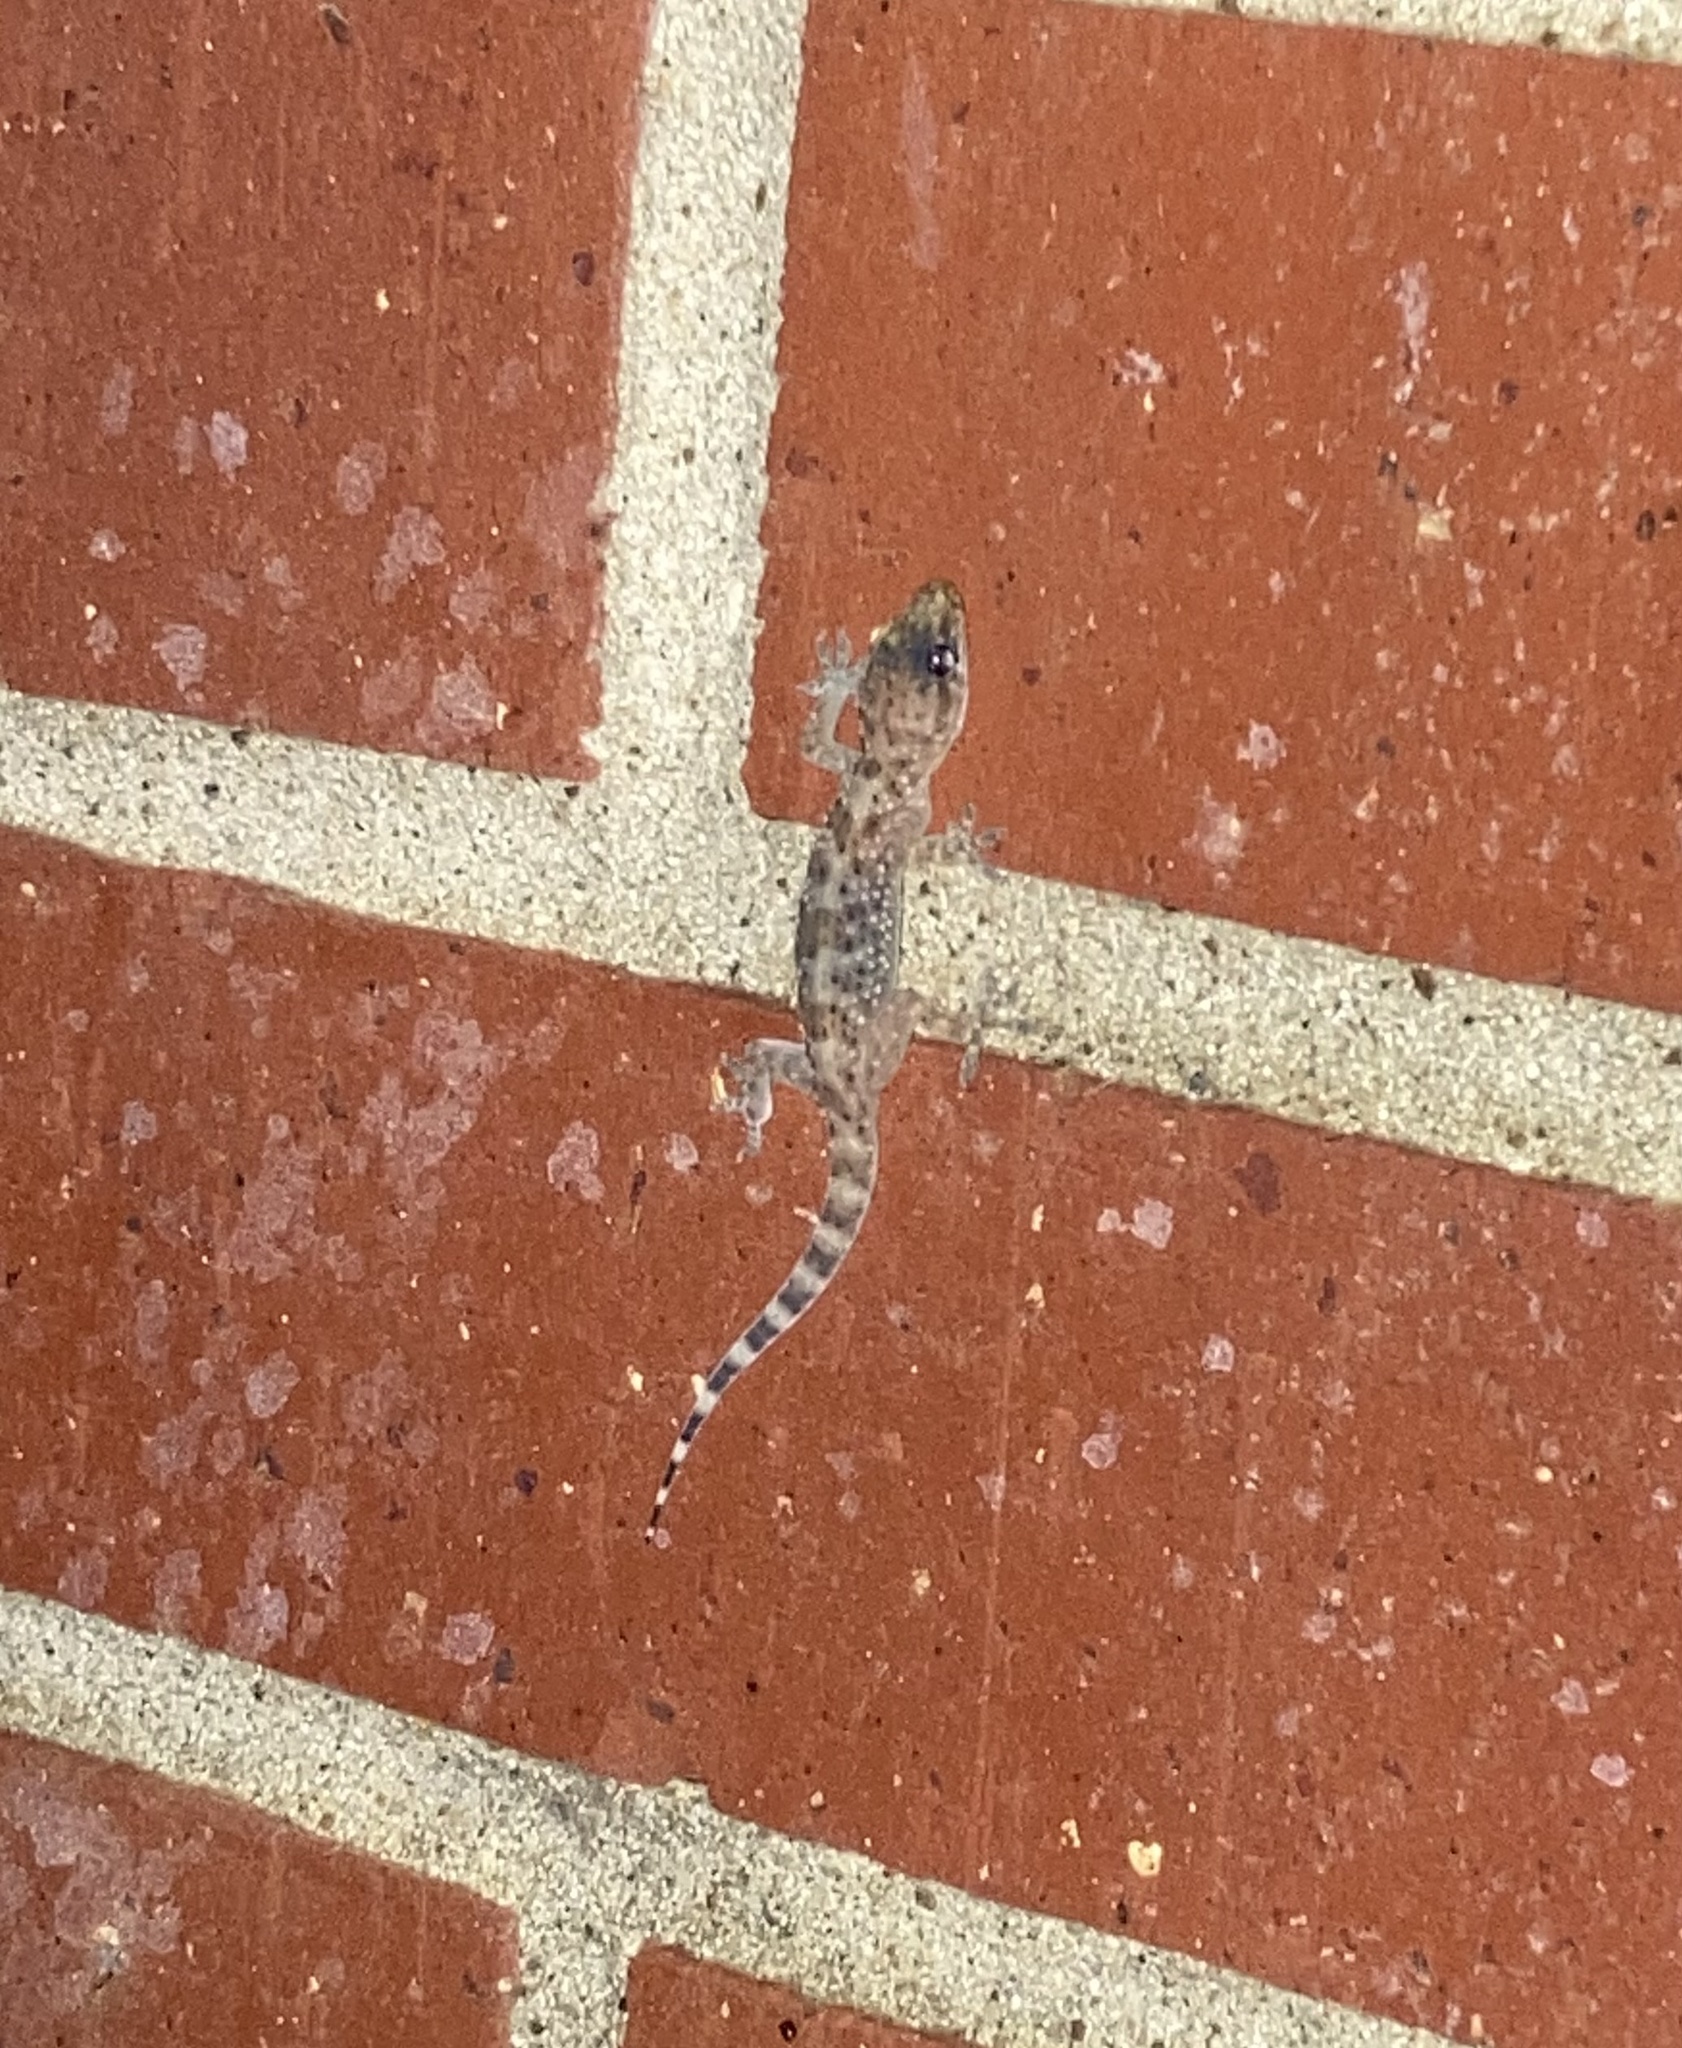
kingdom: Animalia
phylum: Chordata
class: Squamata
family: Gekkonidae
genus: Hemidactylus
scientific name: Hemidactylus turcicus
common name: Turkish gecko
